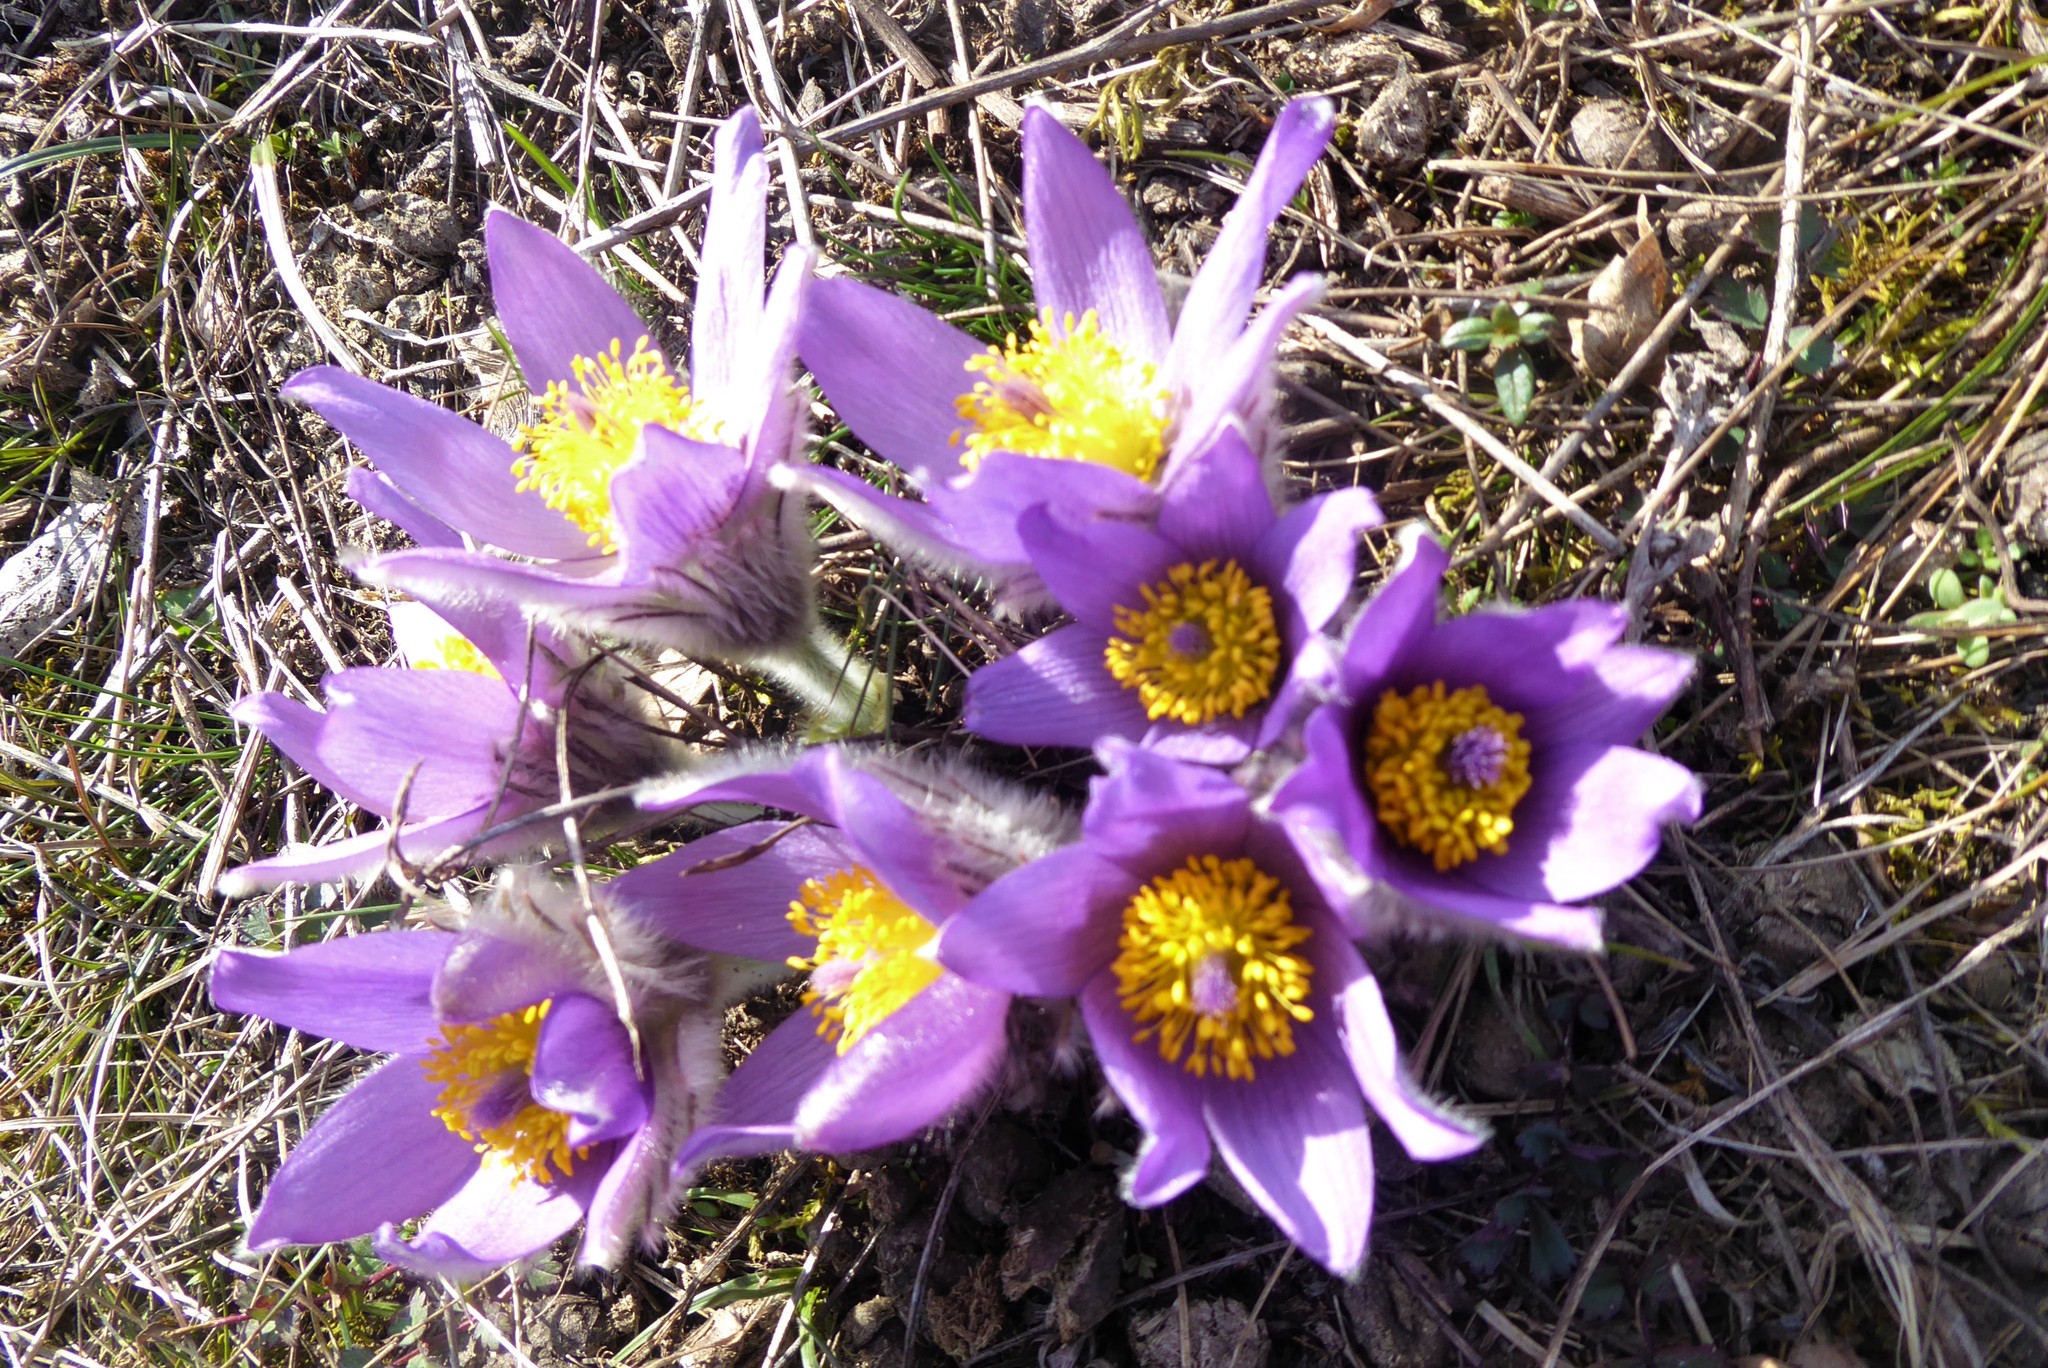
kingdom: Plantae
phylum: Tracheophyta
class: Magnoliopsida
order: Ranunculales
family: Ranunculaceae
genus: Pulsatilla
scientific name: Pulsatilla grandis
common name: Greater pasque flower
